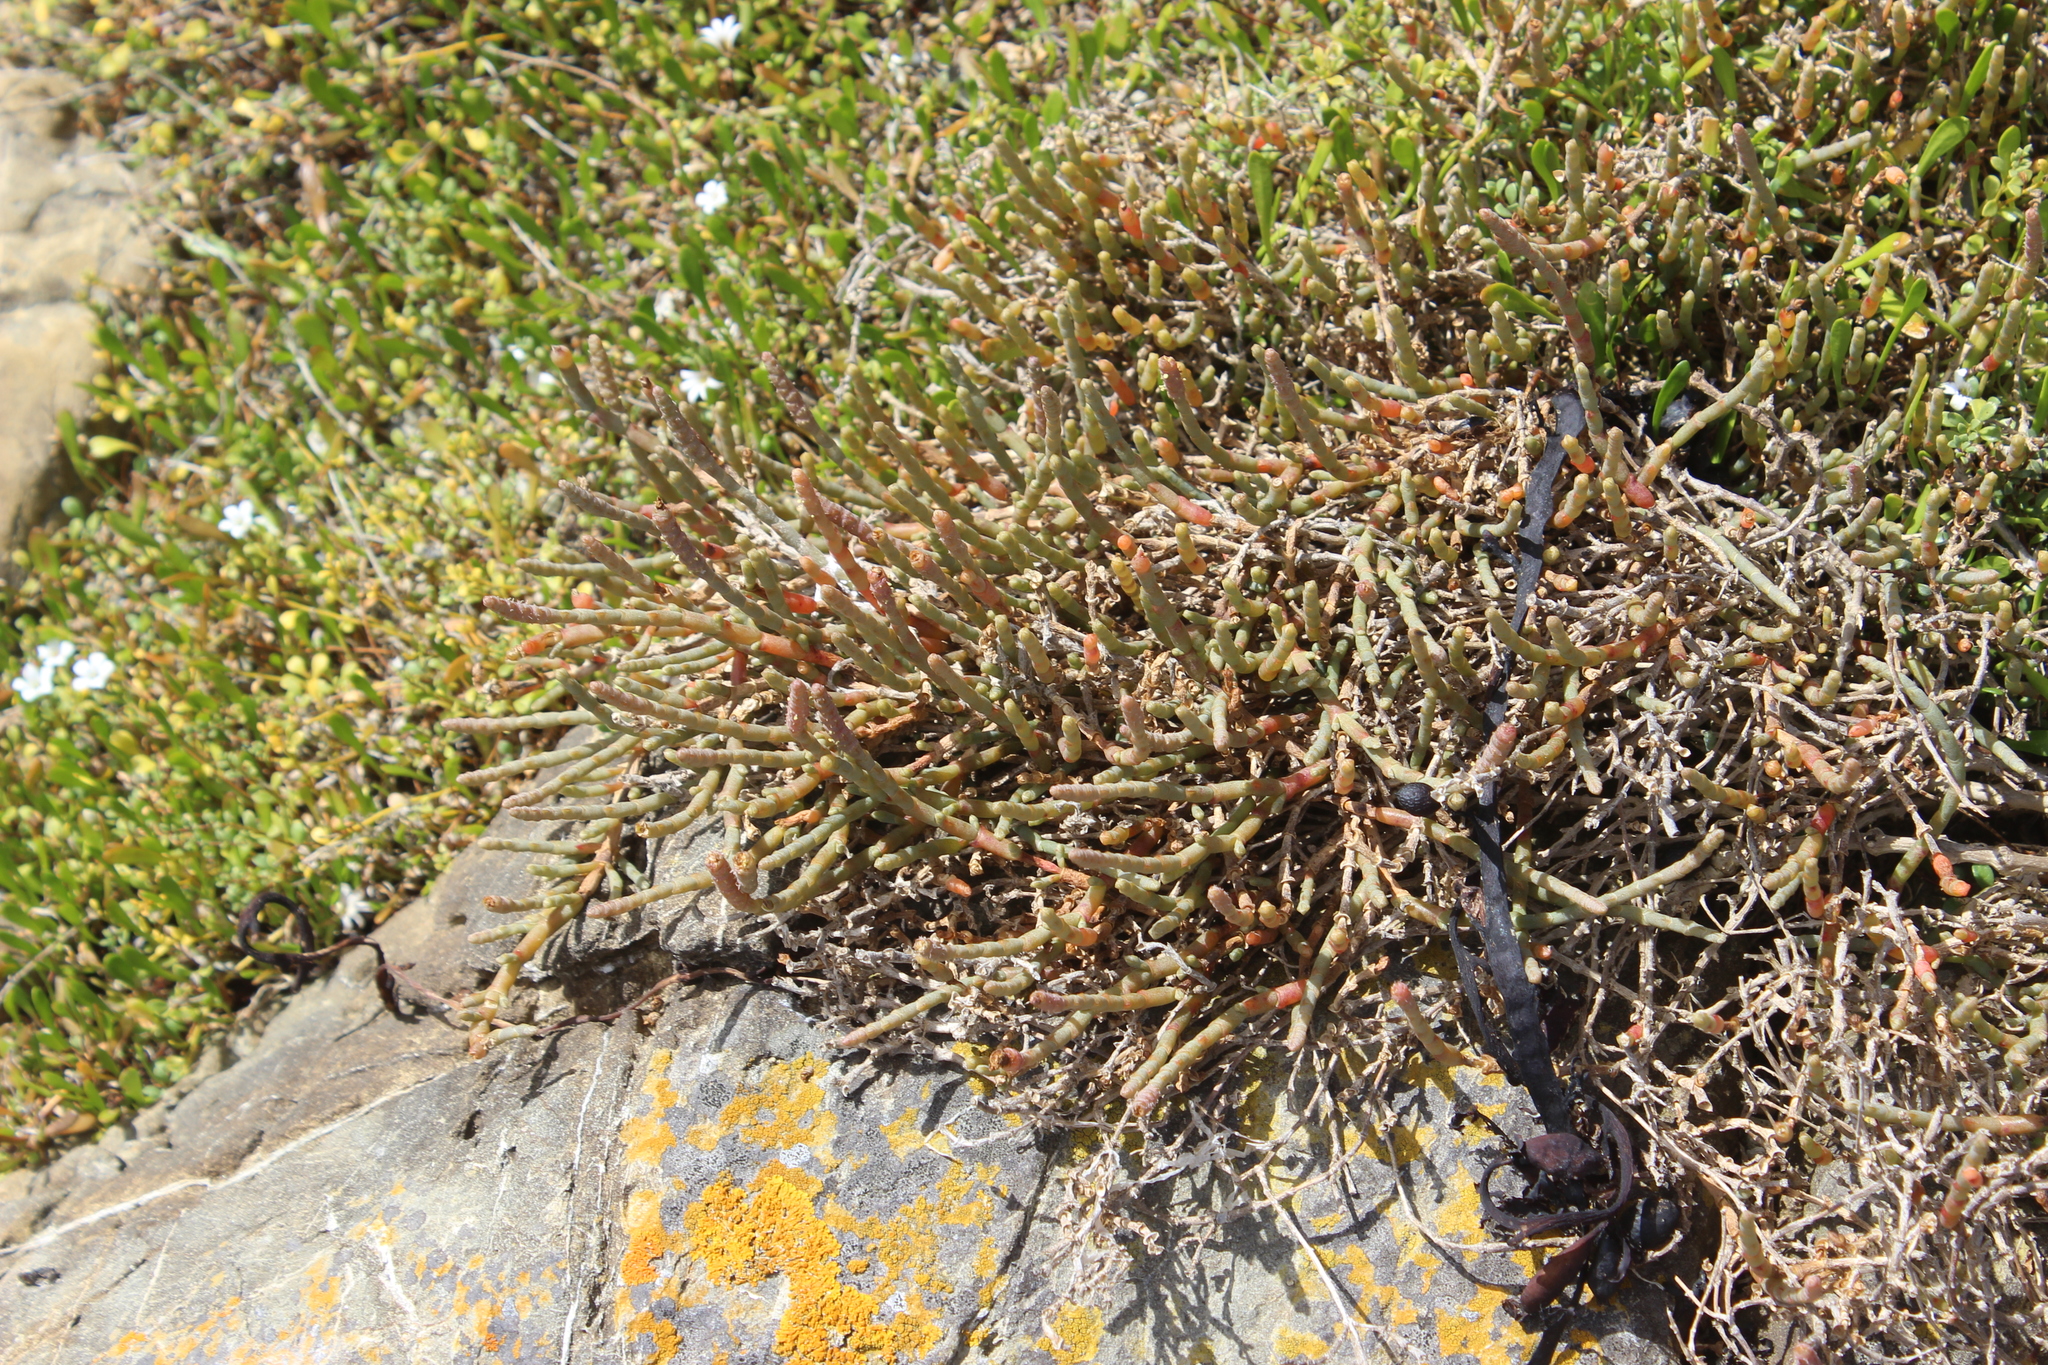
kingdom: Plantae
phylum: Tracheophyta
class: Magnoliopsida
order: Caryophyllales
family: Amaranthaceae
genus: Salicornia
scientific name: Salicornia quinqueflora
